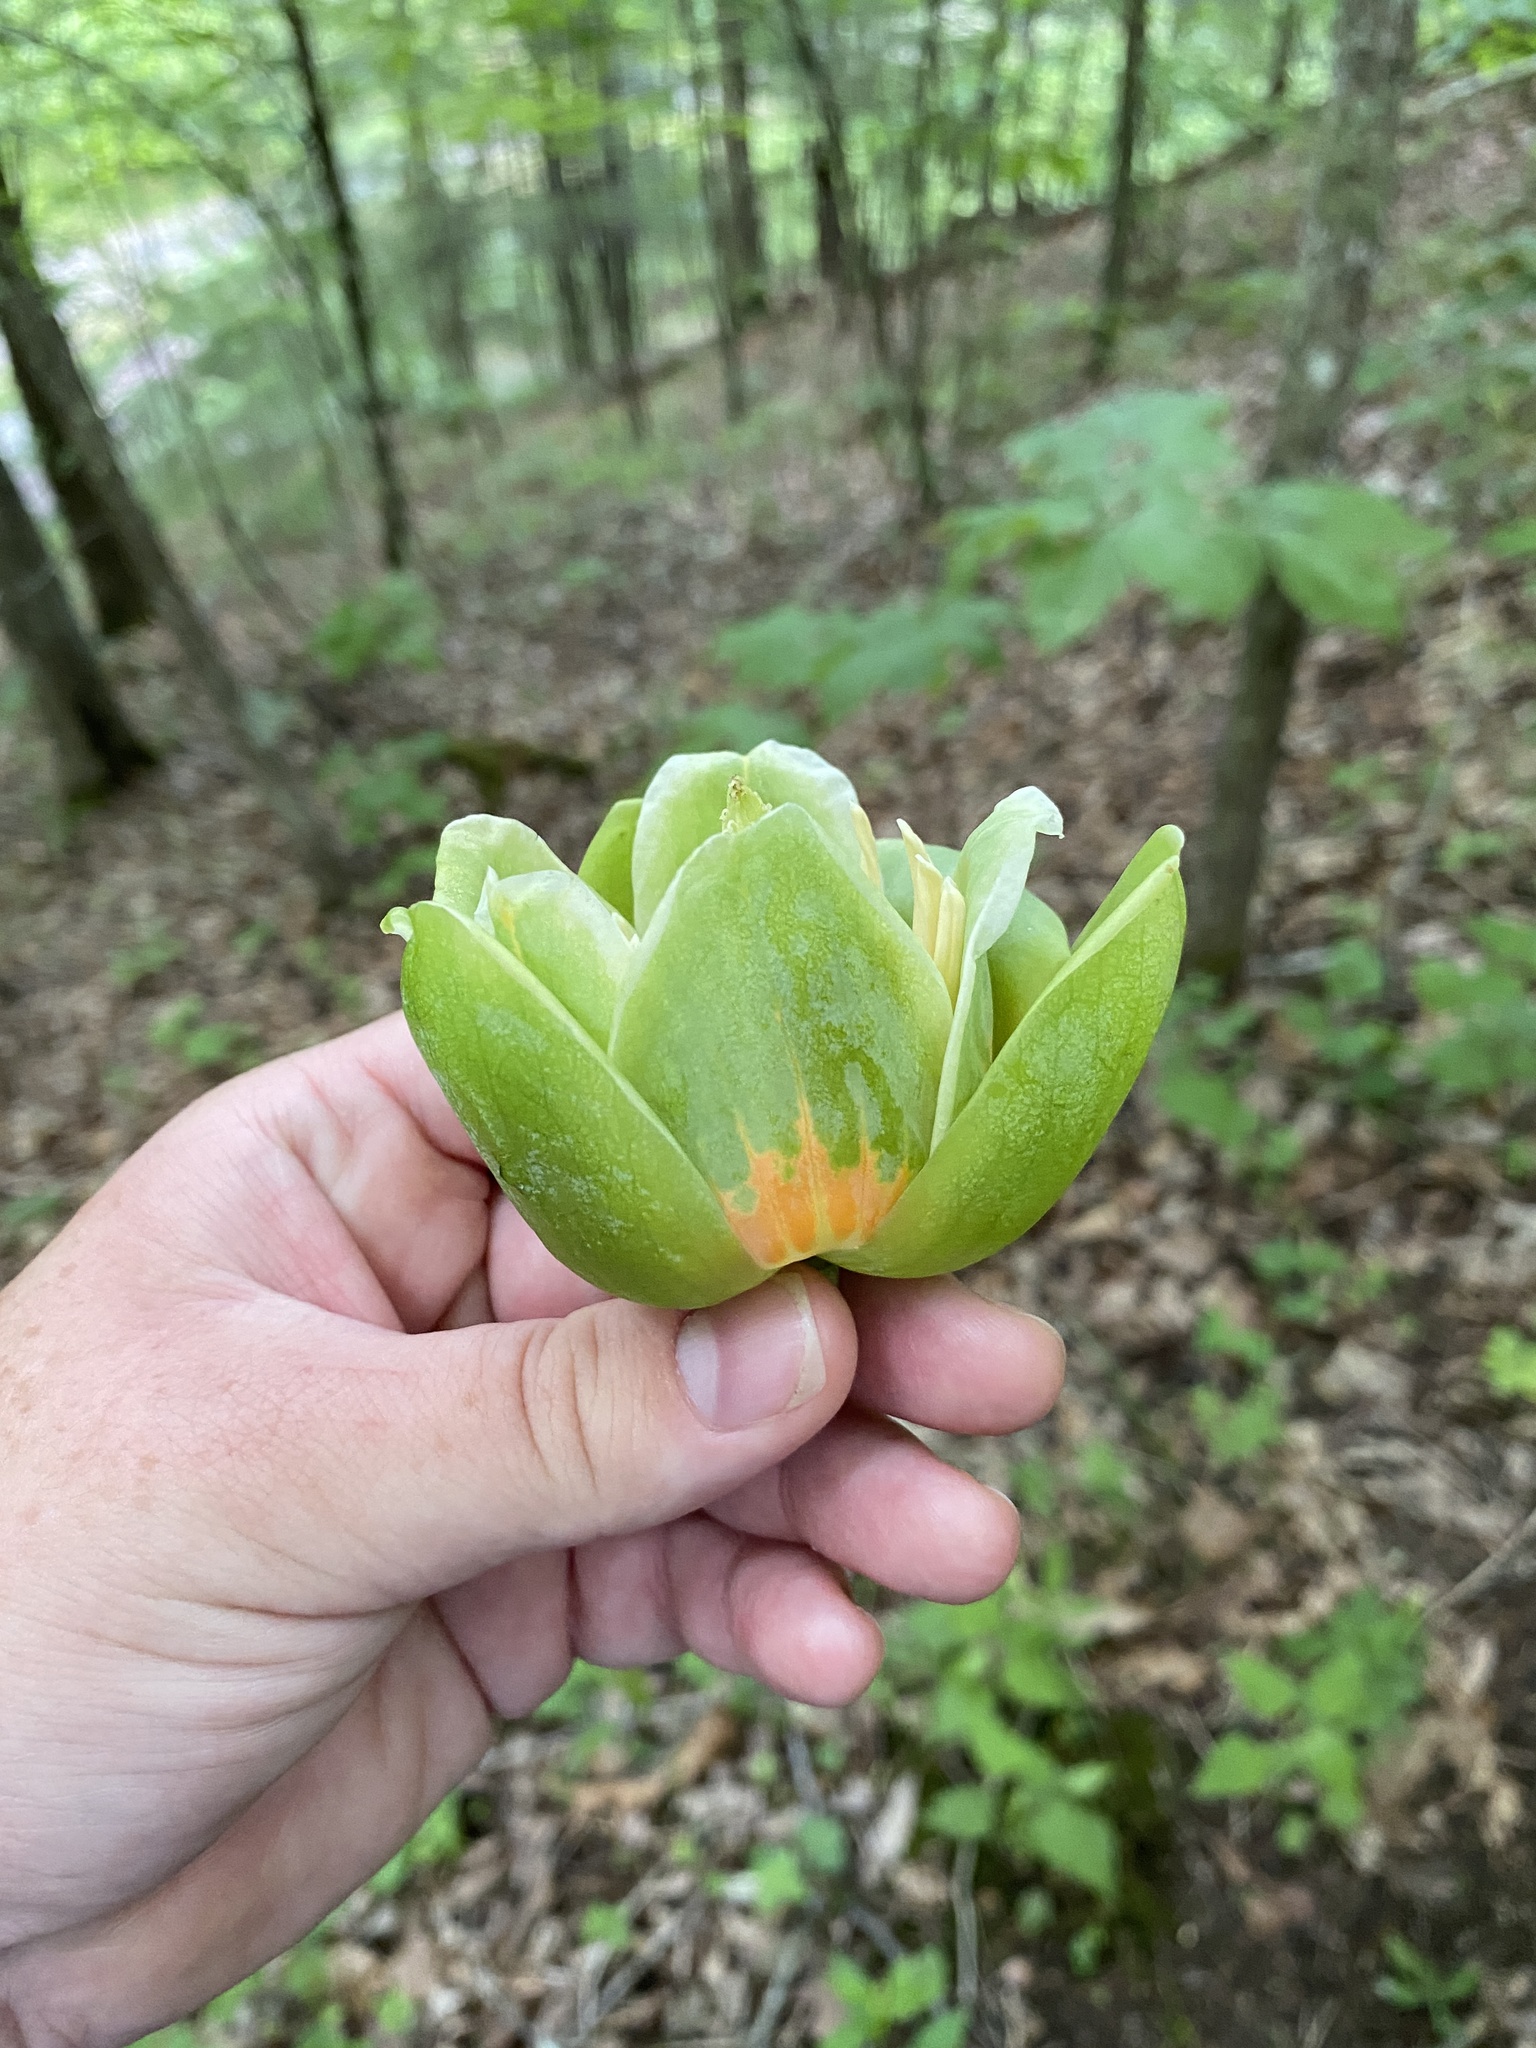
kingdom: Plantae
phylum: Tracheophyta
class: Magnoliopsida
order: Magnoliales
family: Magnoliaceae
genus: Liriodendron
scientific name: Liriodendron tulipifera
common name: Tulip tree
